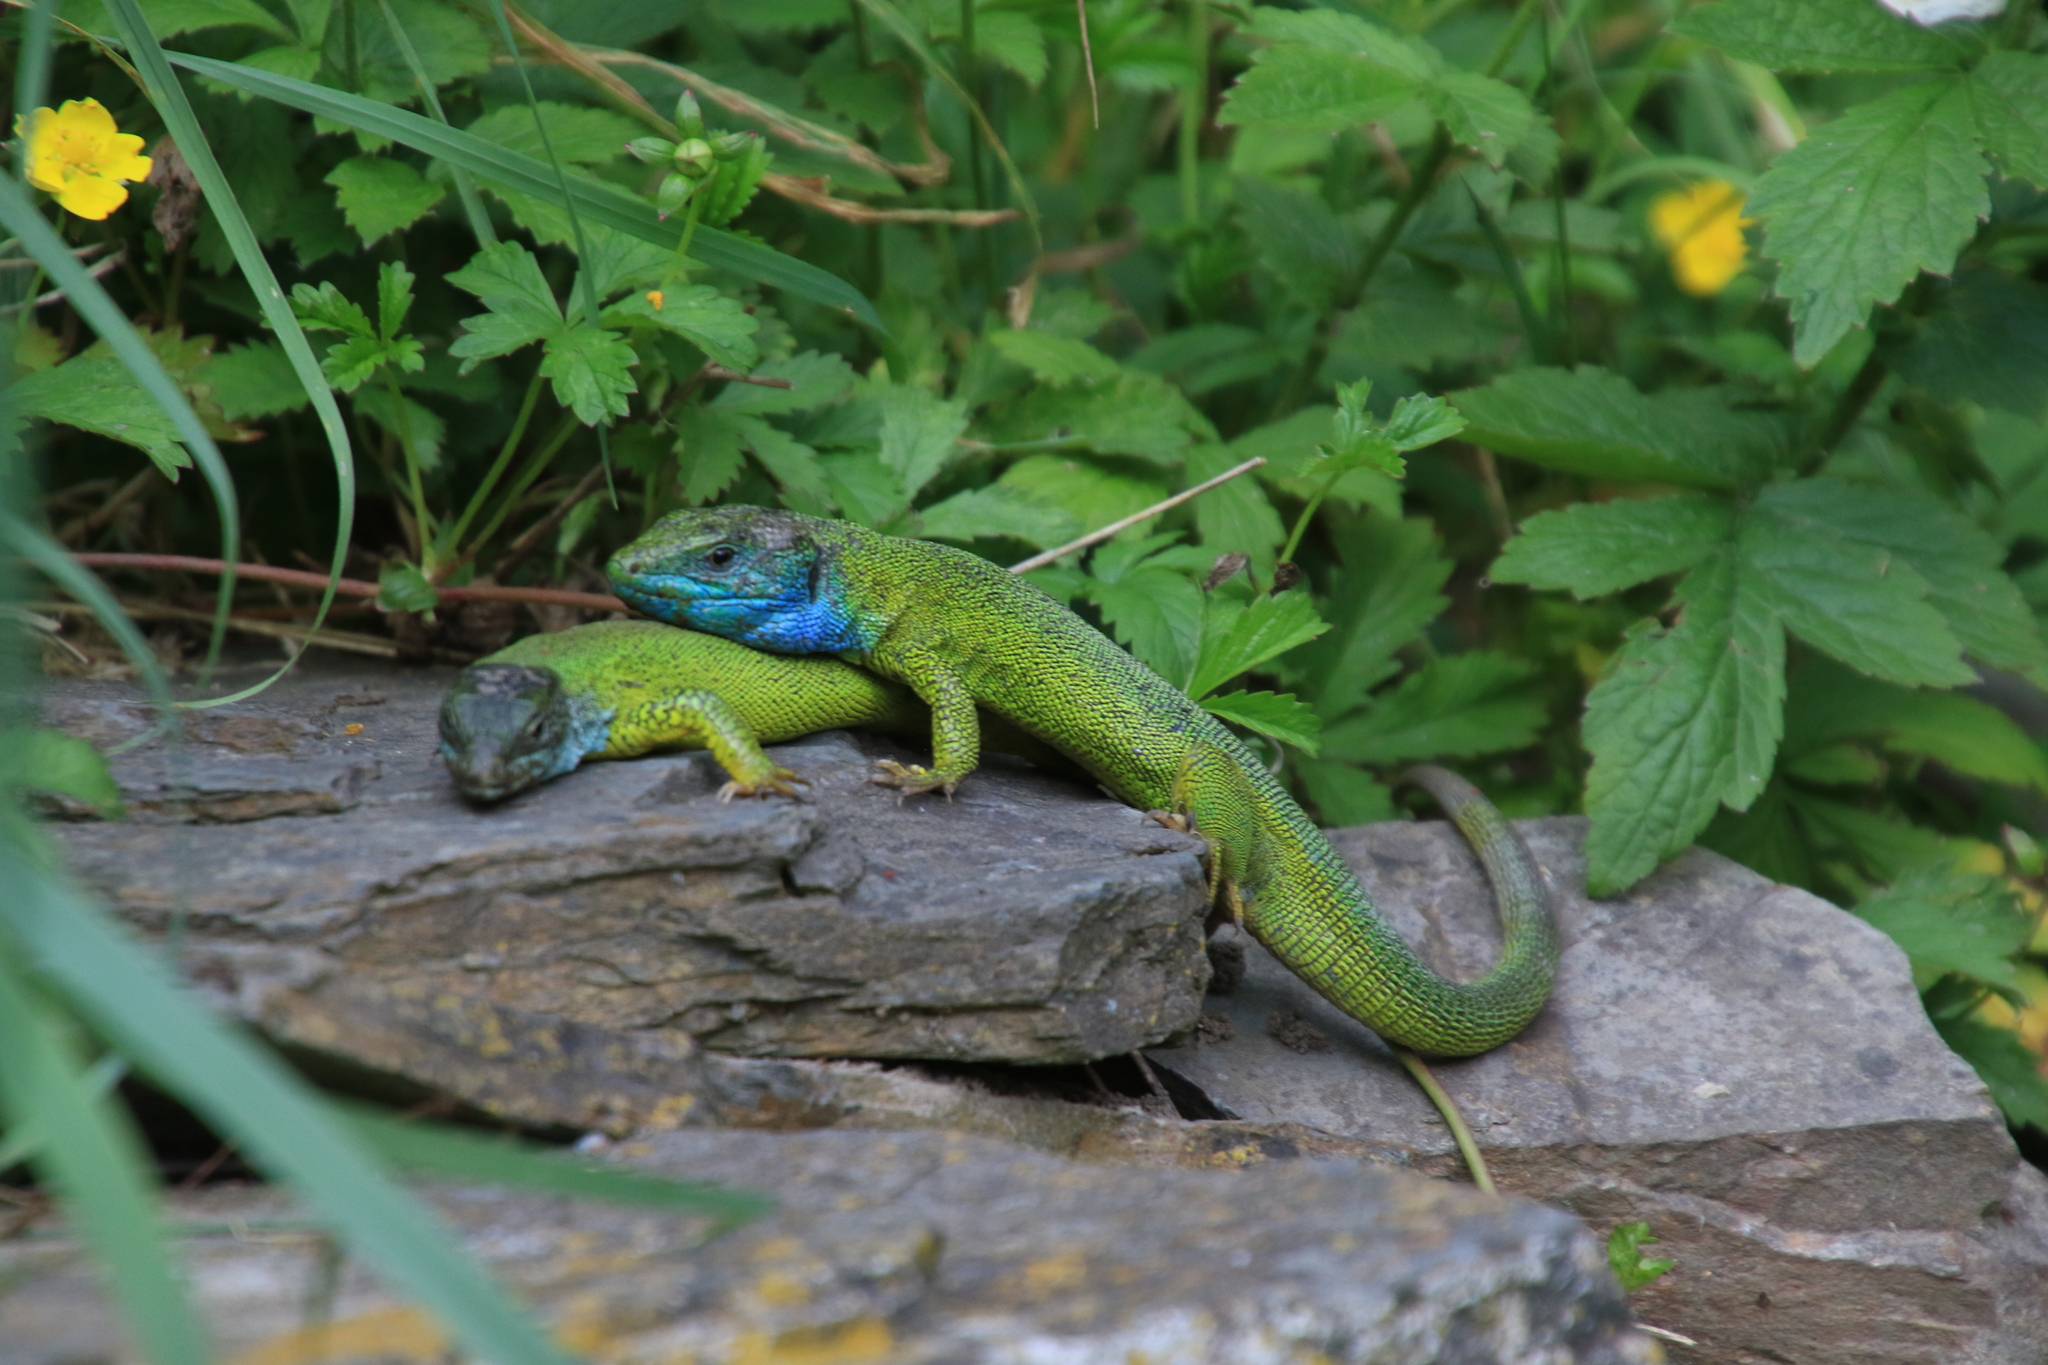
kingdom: Animalia
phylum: Chordata
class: Squamata
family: Lacertidae
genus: Lacerta
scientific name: Lacerta viridis
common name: European green lizard
